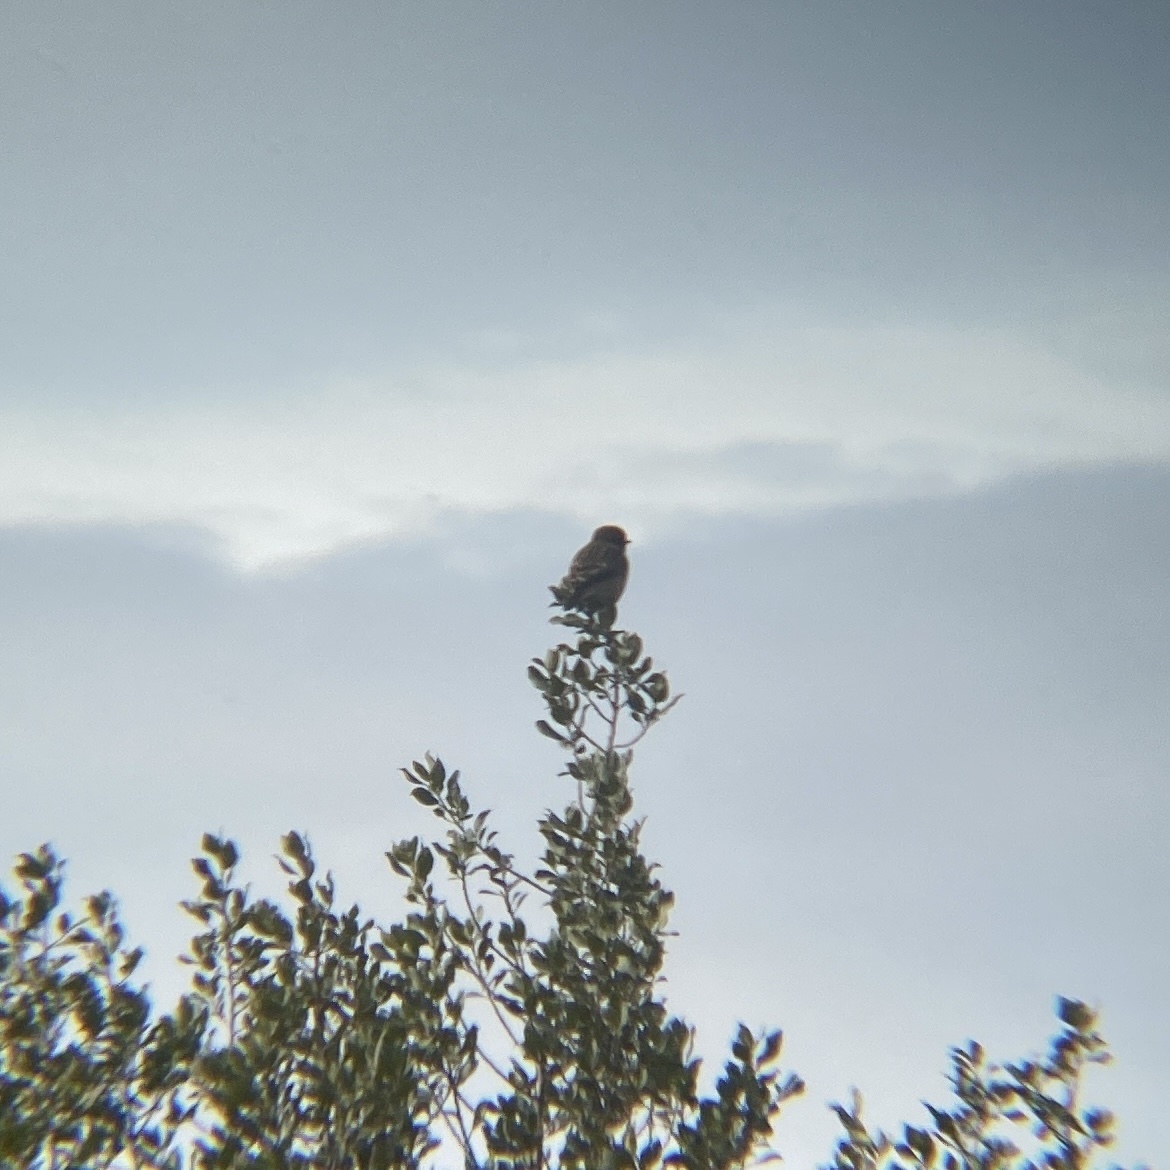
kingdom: Animalia
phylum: Chordata
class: Aves
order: Passeriformes
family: Muscicapidae
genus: Saxicola
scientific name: Saxicola rubicola
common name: European stonechat
